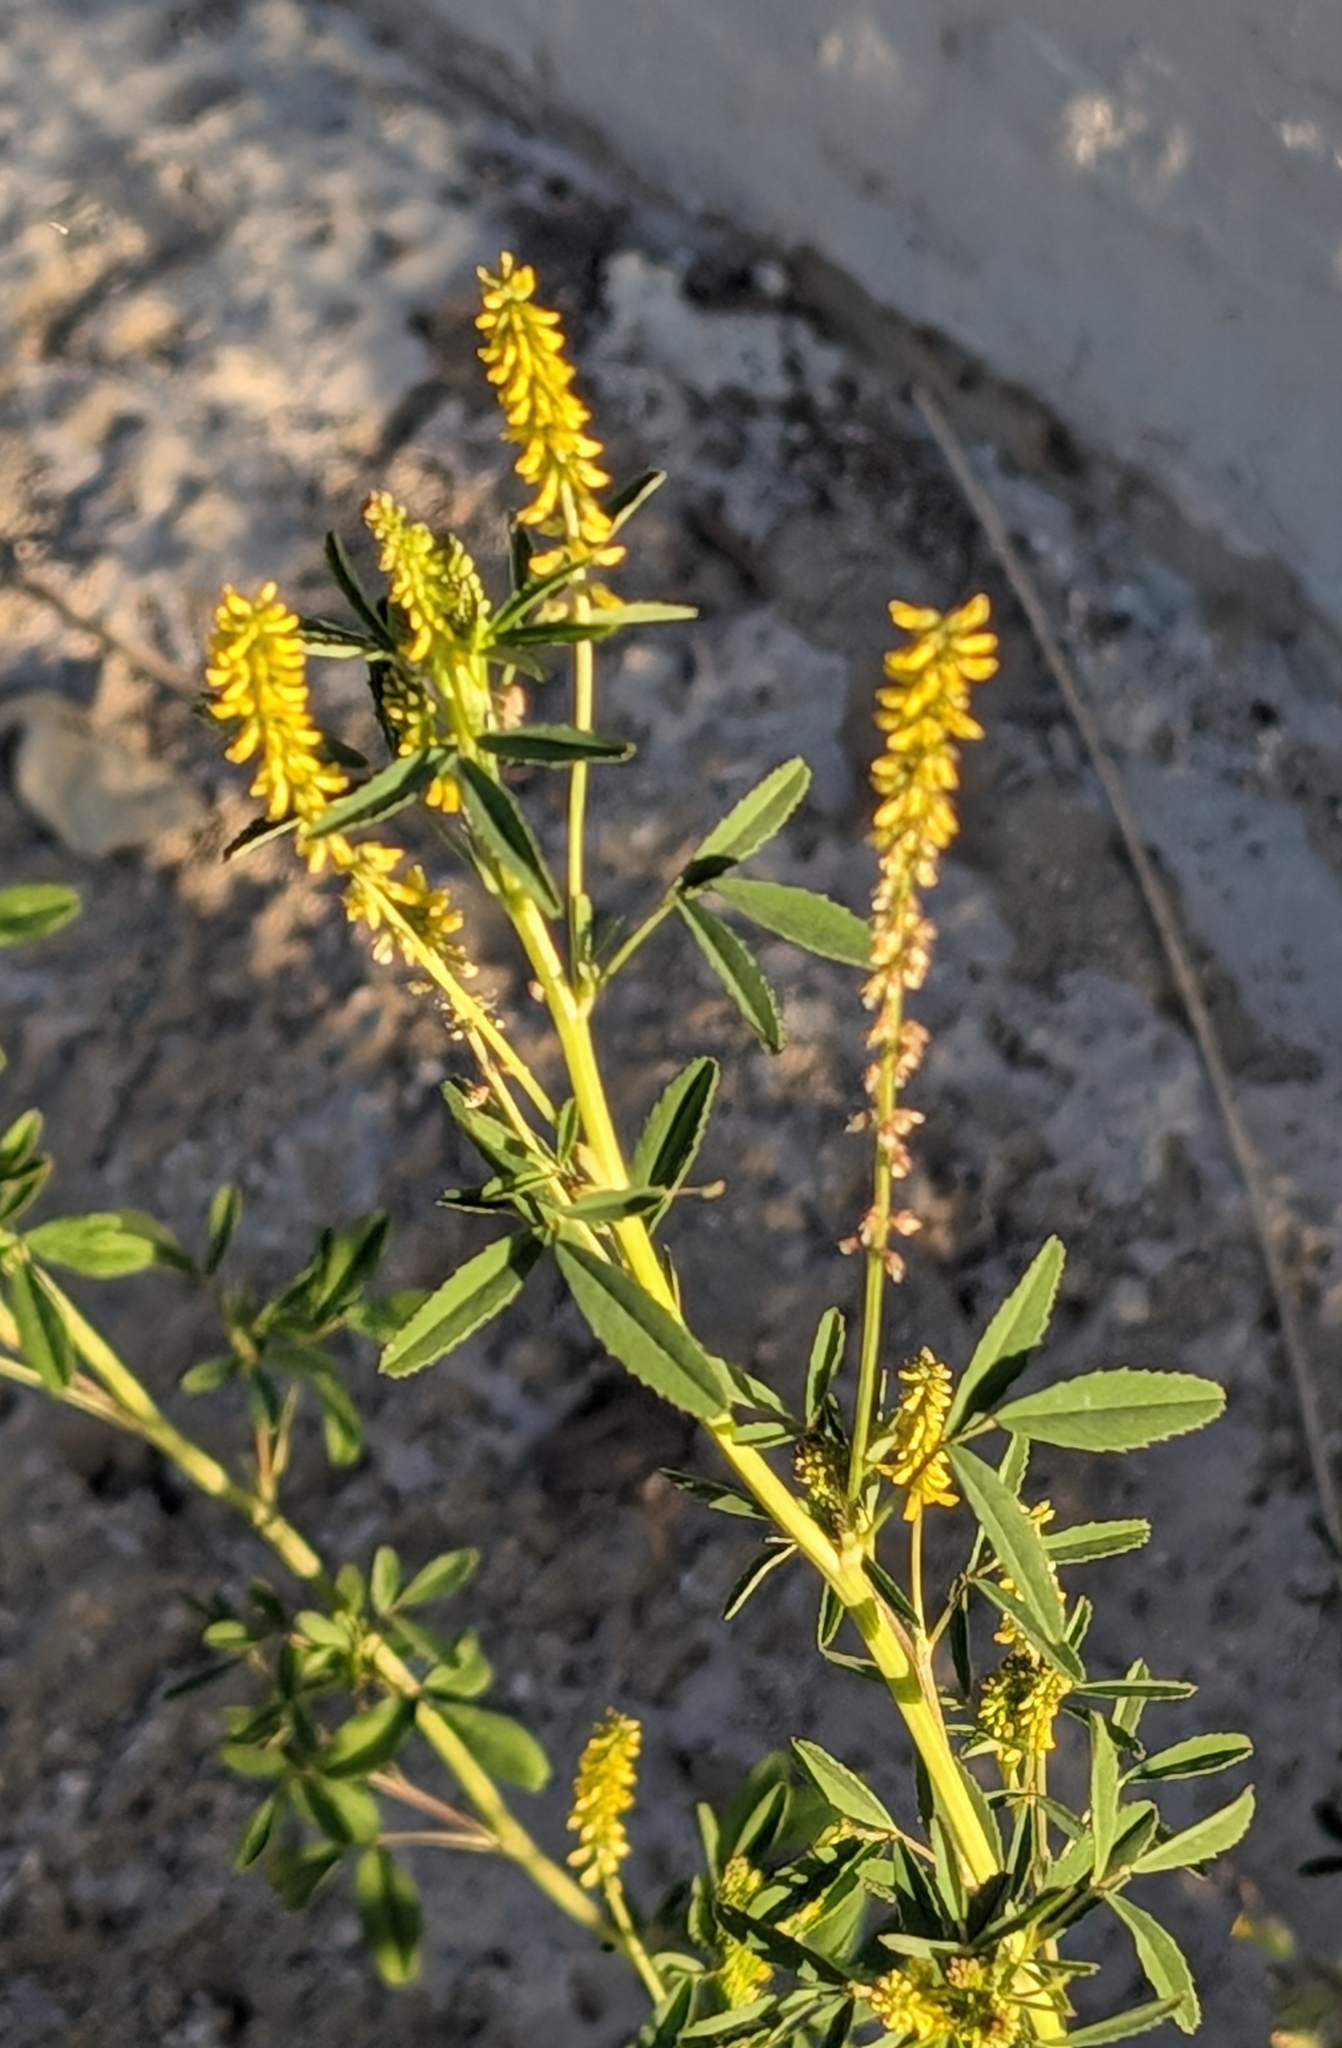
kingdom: Plantae
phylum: Tracheophyta
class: Magnoliopsida
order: Fabales
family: Fabaceae
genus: Melilotus
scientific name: Melilotus indicus
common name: Small melilot
